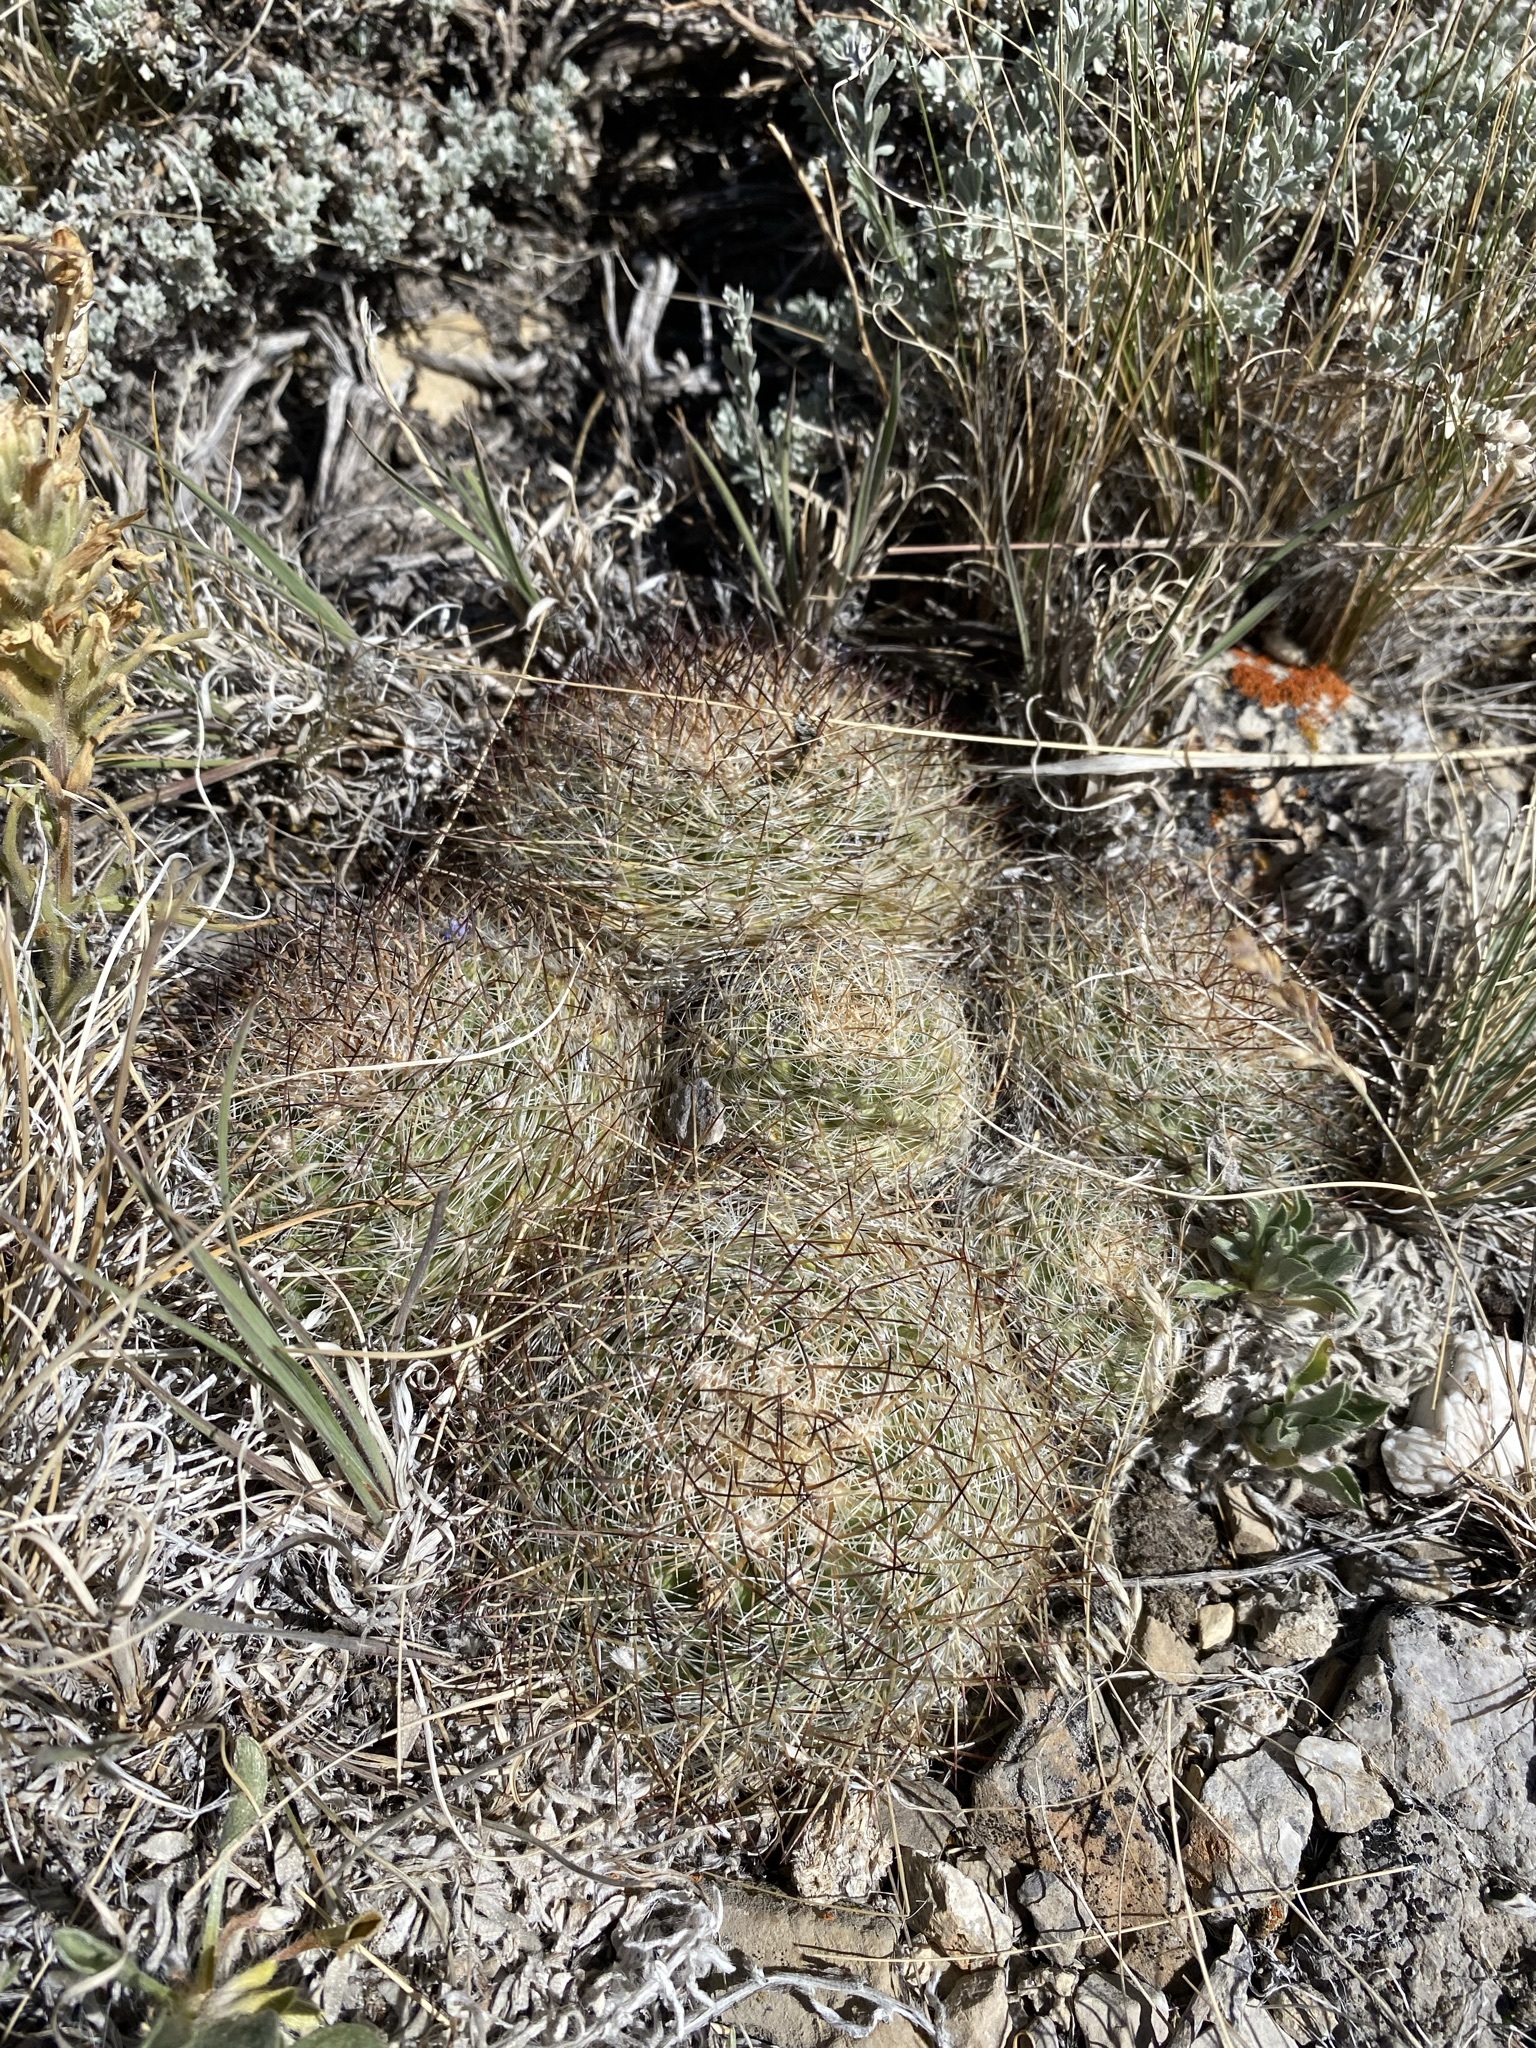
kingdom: Plantae
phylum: Tracheophyta
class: Magnoliopsida
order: Caryophyllales
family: Cactaceae
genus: Pediocactus
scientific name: Pediocactus simpsonii
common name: Simpson's hedgehog cactus
